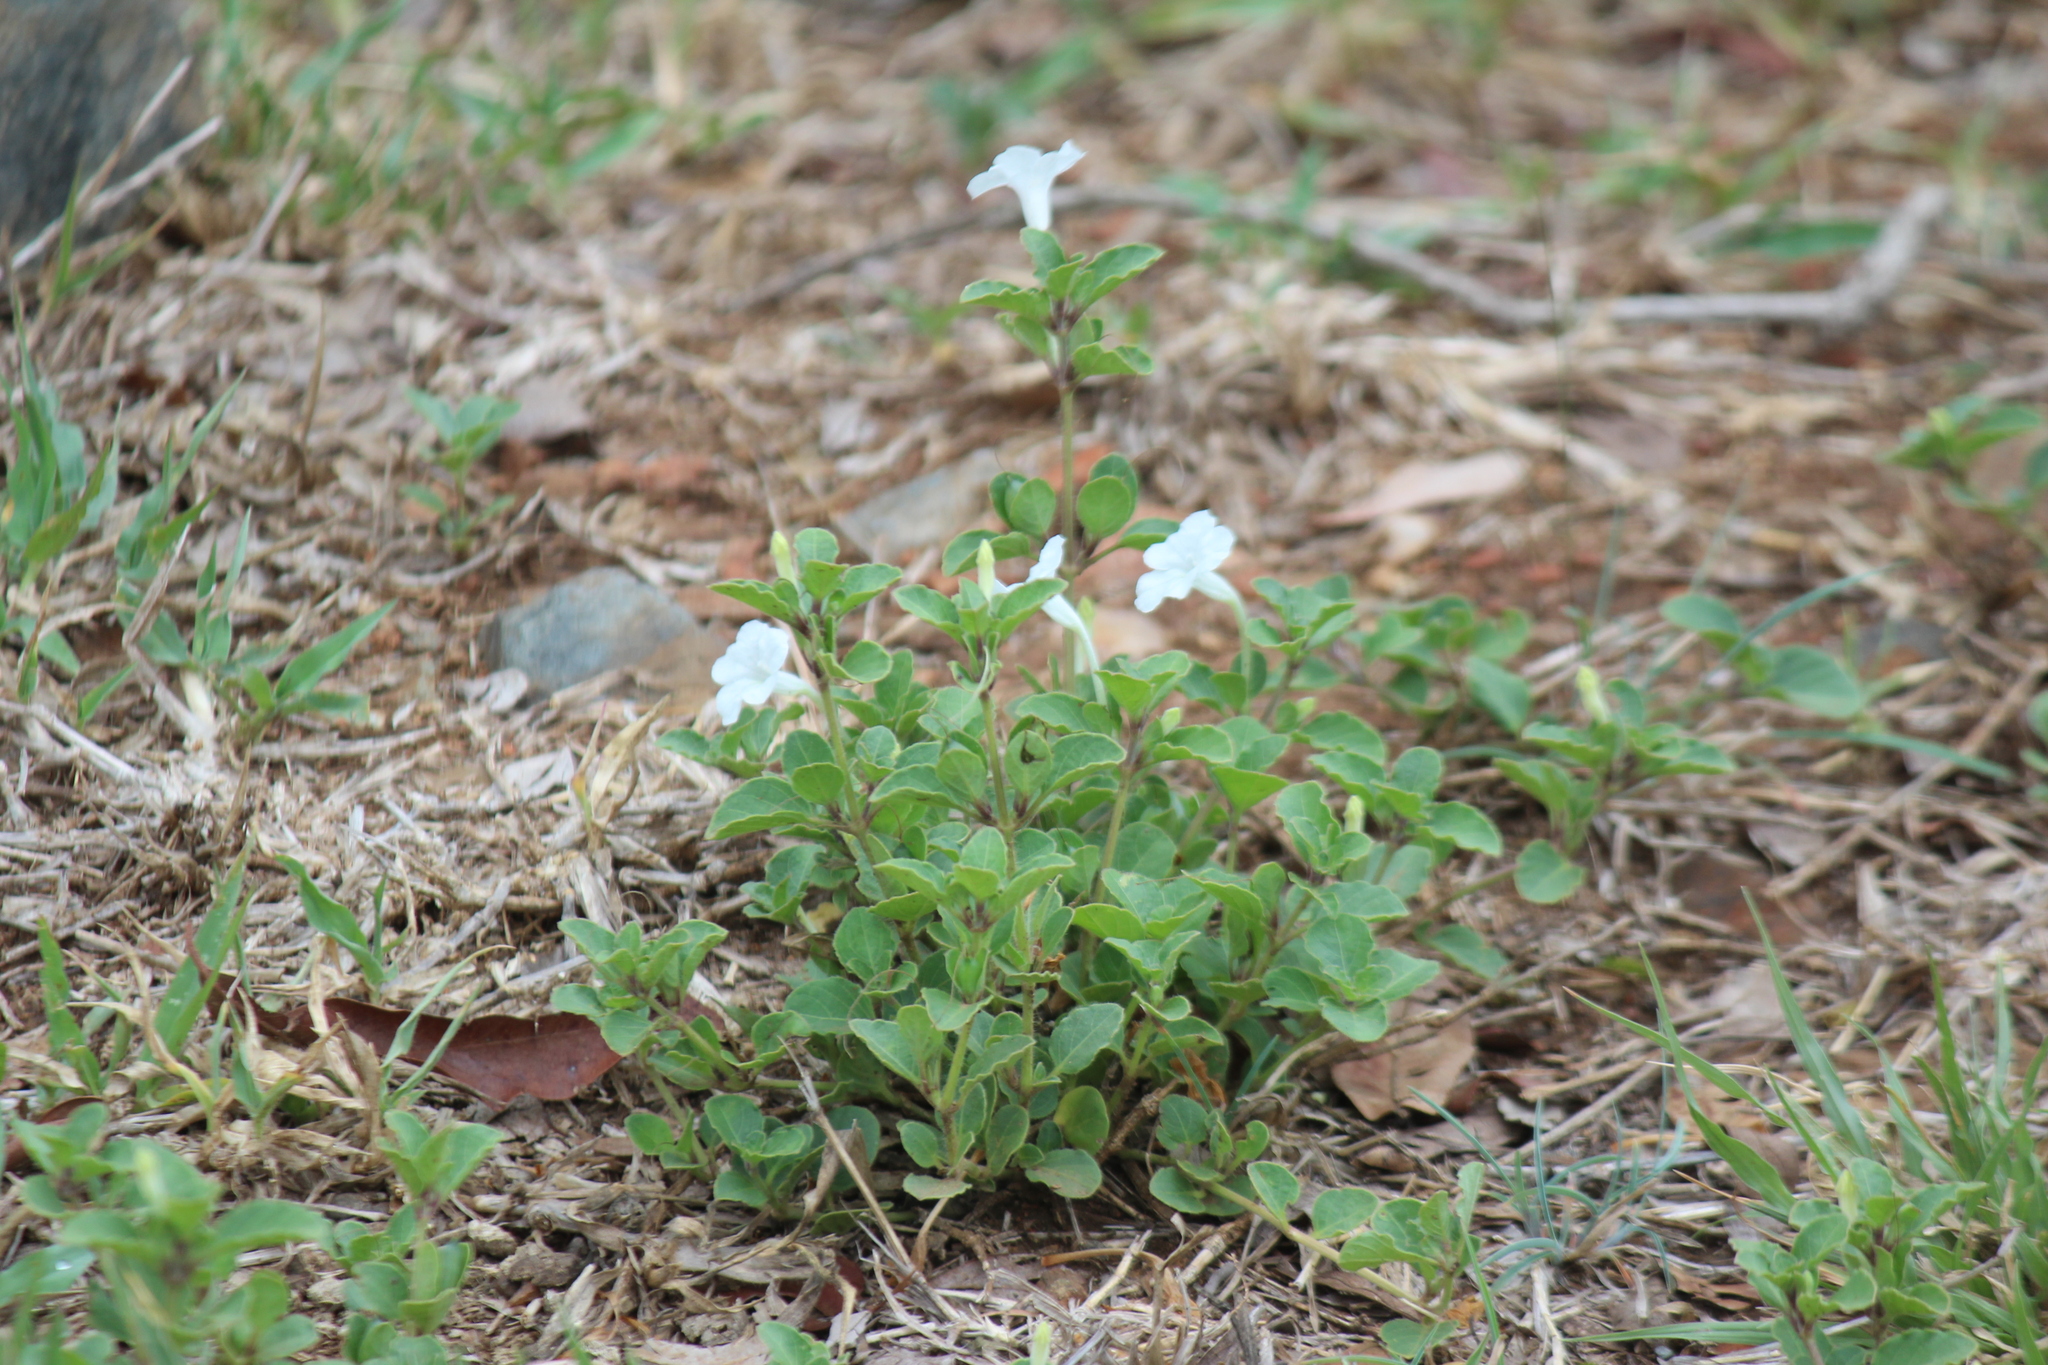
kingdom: Plantae
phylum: Tracheophyta
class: Magnoliopsida
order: Lamiales
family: Acanthaceae
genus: Ruellia
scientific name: Ruellia patula
